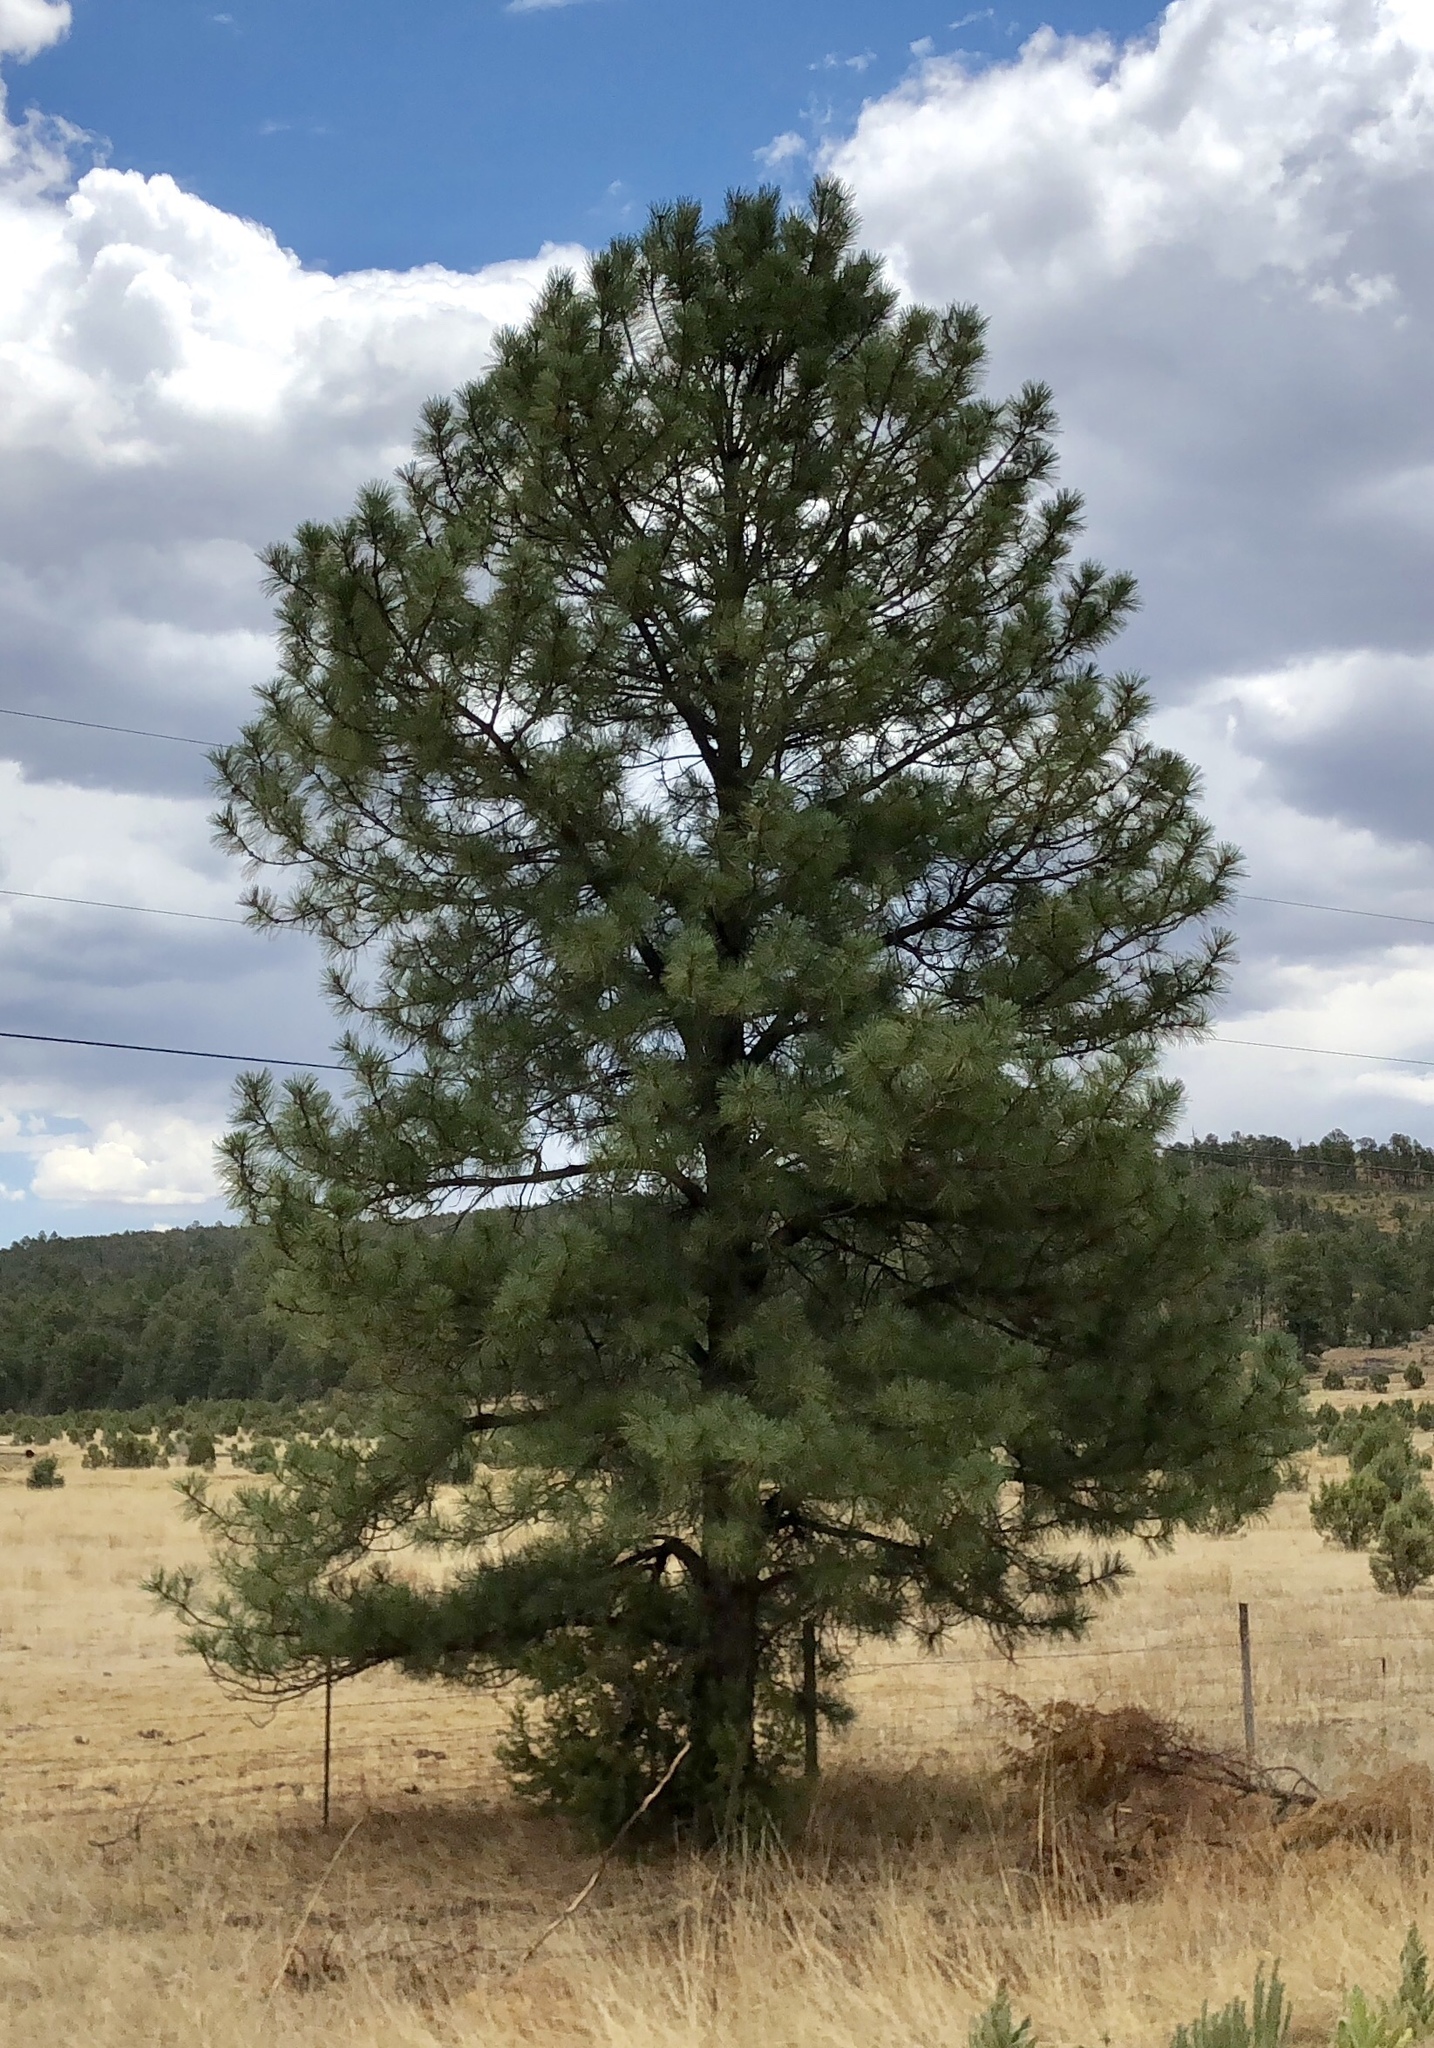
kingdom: Plantae
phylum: Tracheophyta
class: Pinopsida
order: Pinales
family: Pinaceae
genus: Pinus
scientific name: Pinus ponderosa
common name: Western yellow-pine
